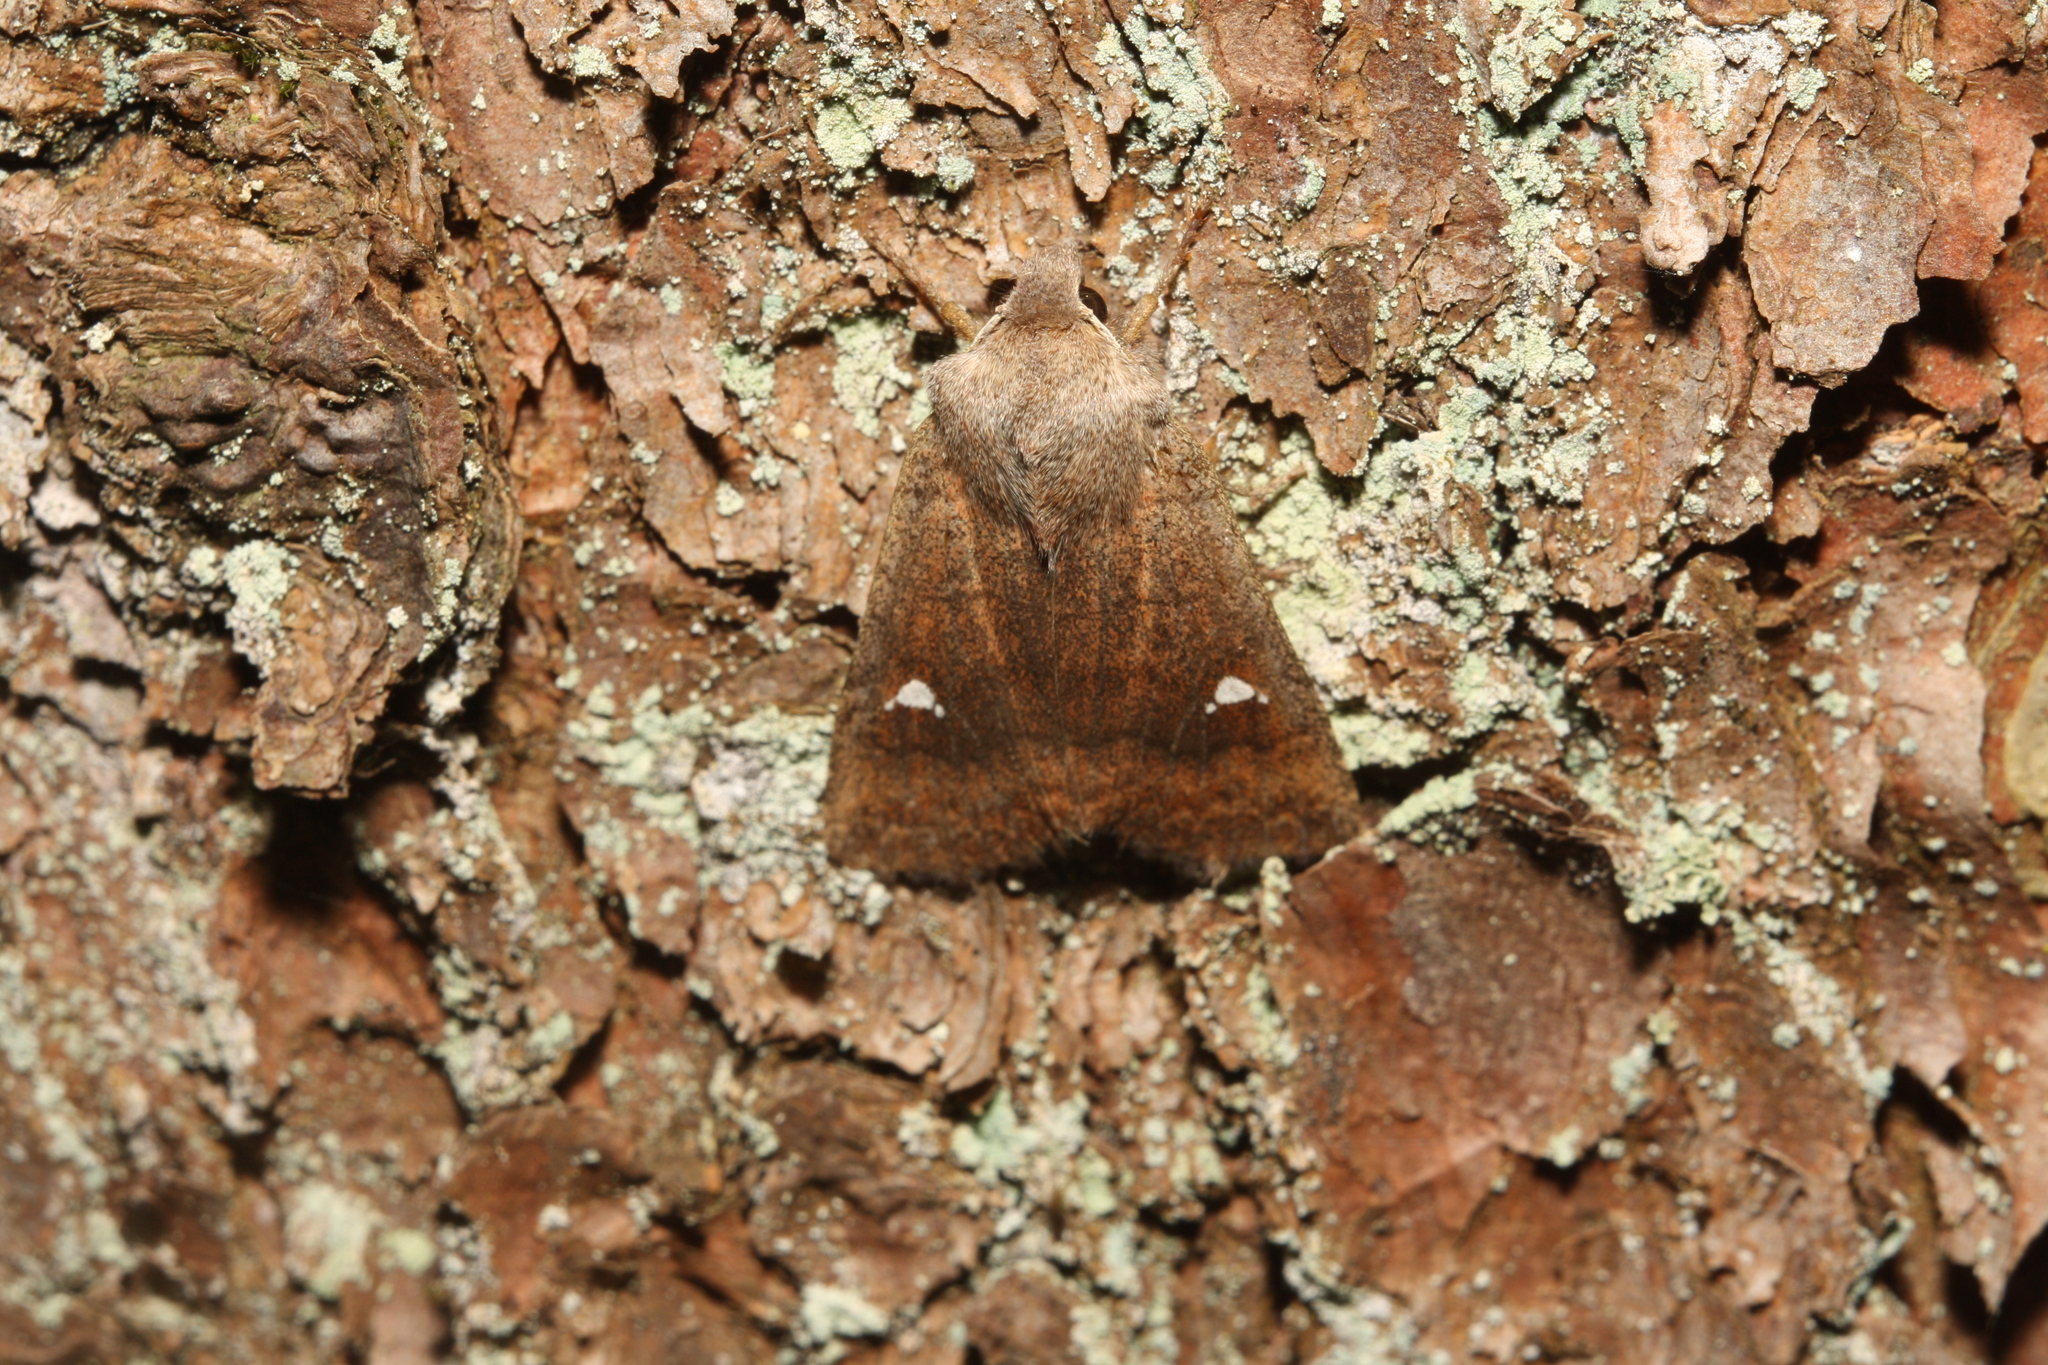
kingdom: Animalia
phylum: Arthropoda
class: Insecta
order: Lepidoptera
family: Noctuidae
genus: Eupsilia
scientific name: Eupsilia transversa
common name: Satellite
